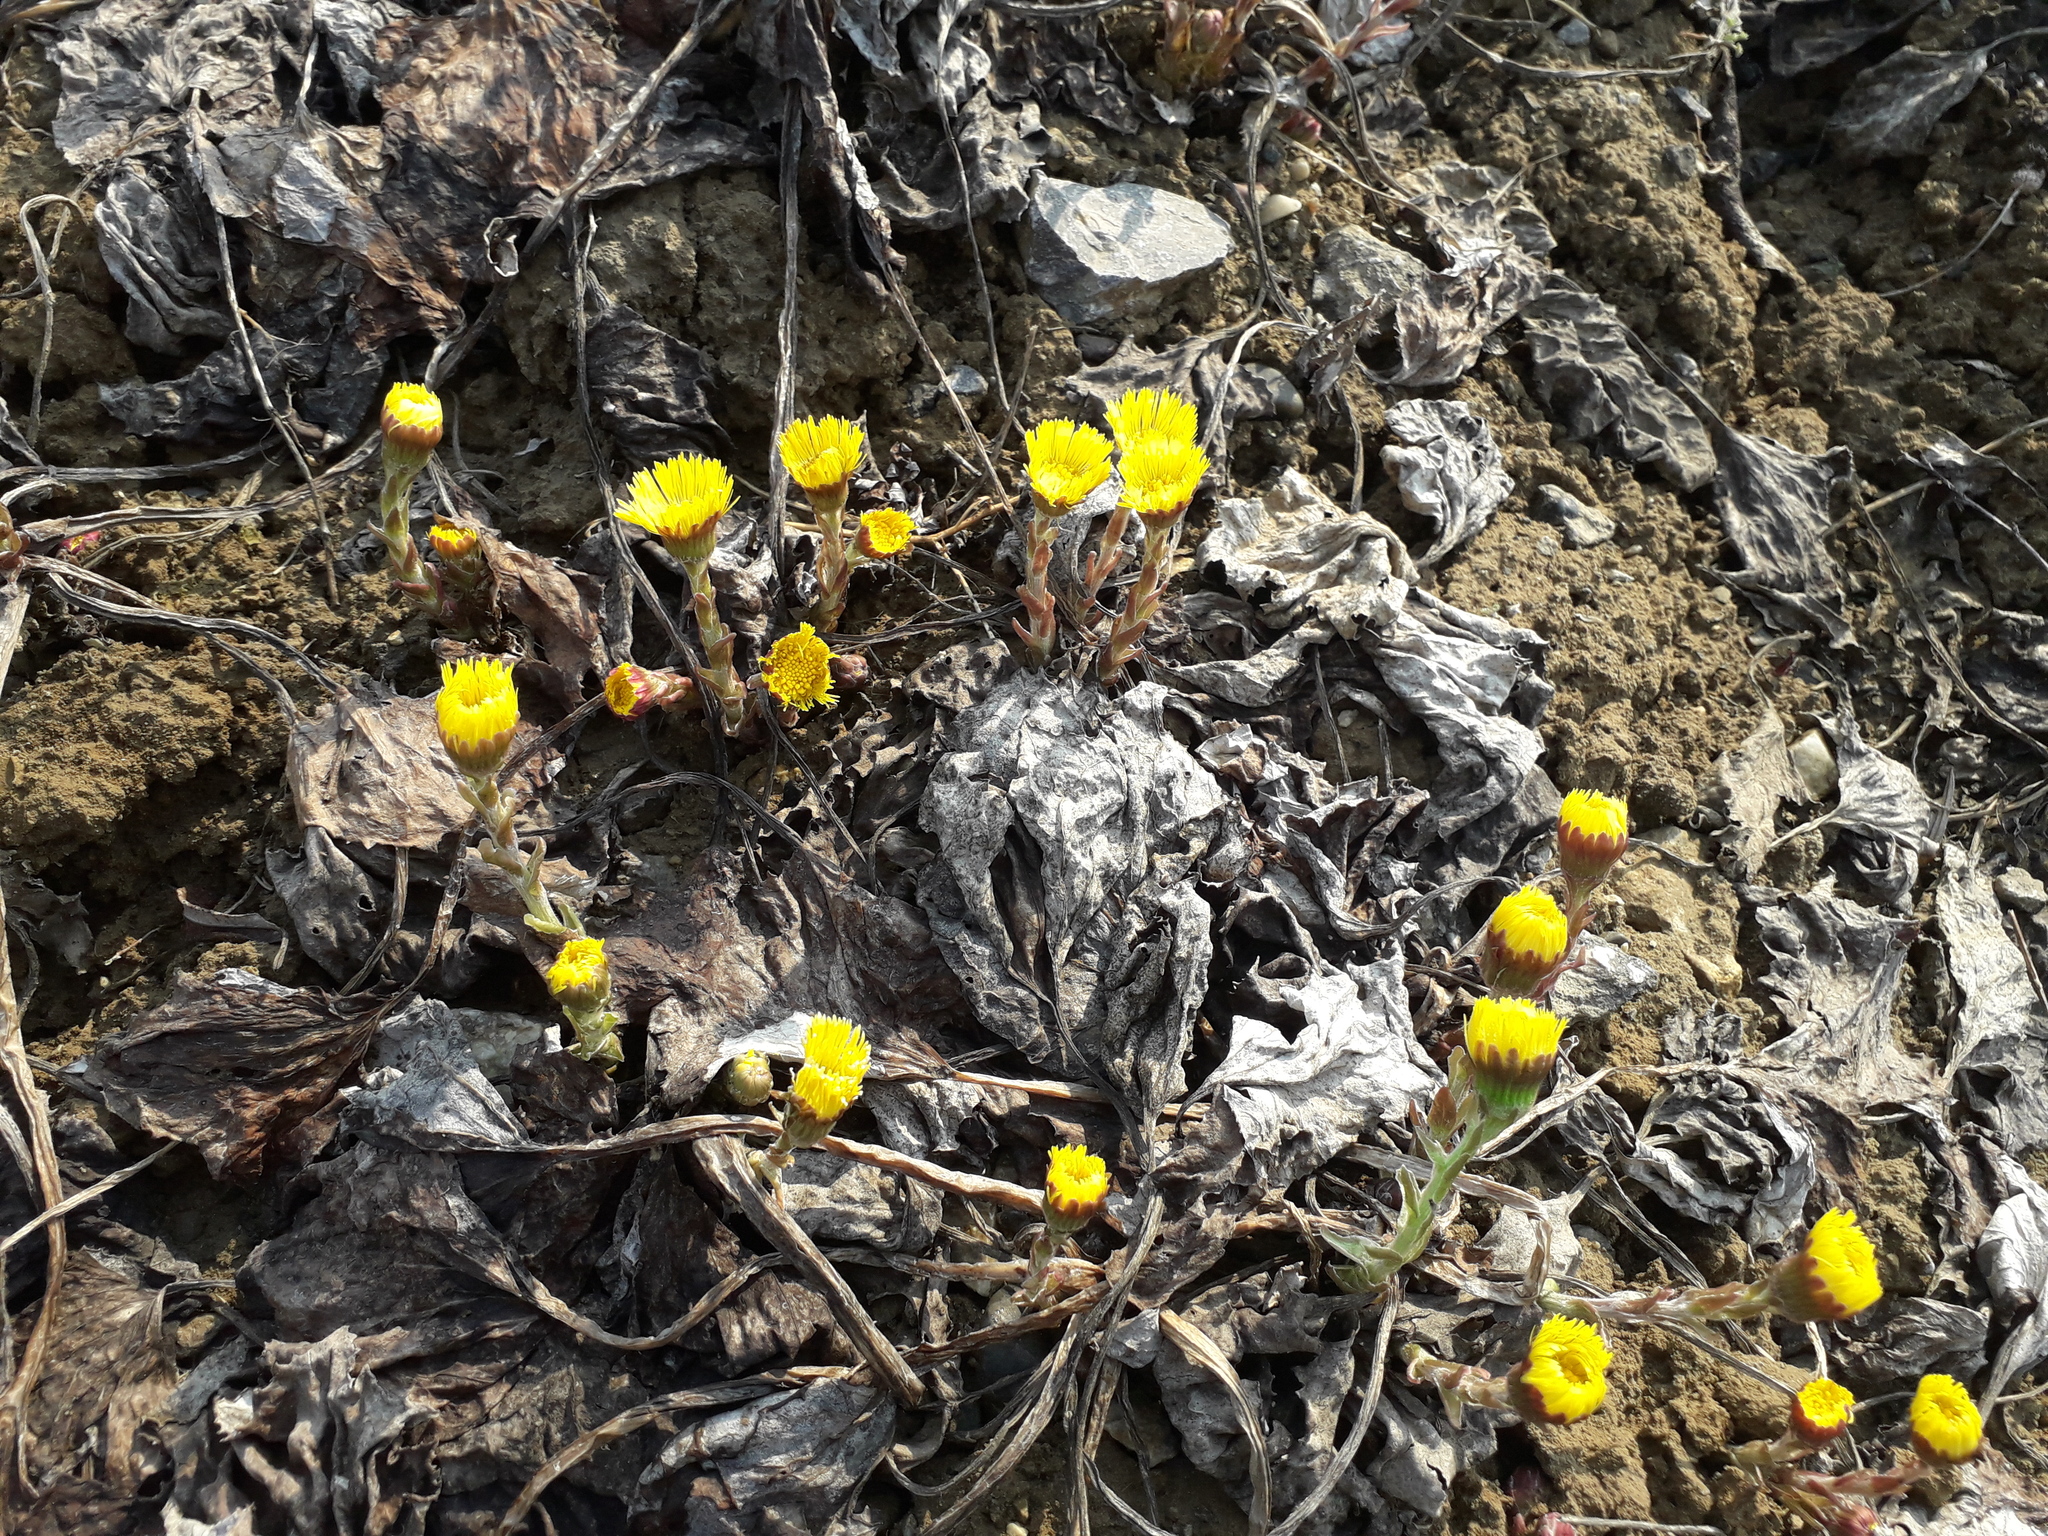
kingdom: Plantae
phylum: Tracheophyta
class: Magnoliopsida
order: Asterales
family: Asteraceae
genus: Tussilago
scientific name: Tussilago farfara
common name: Coltsfoot
